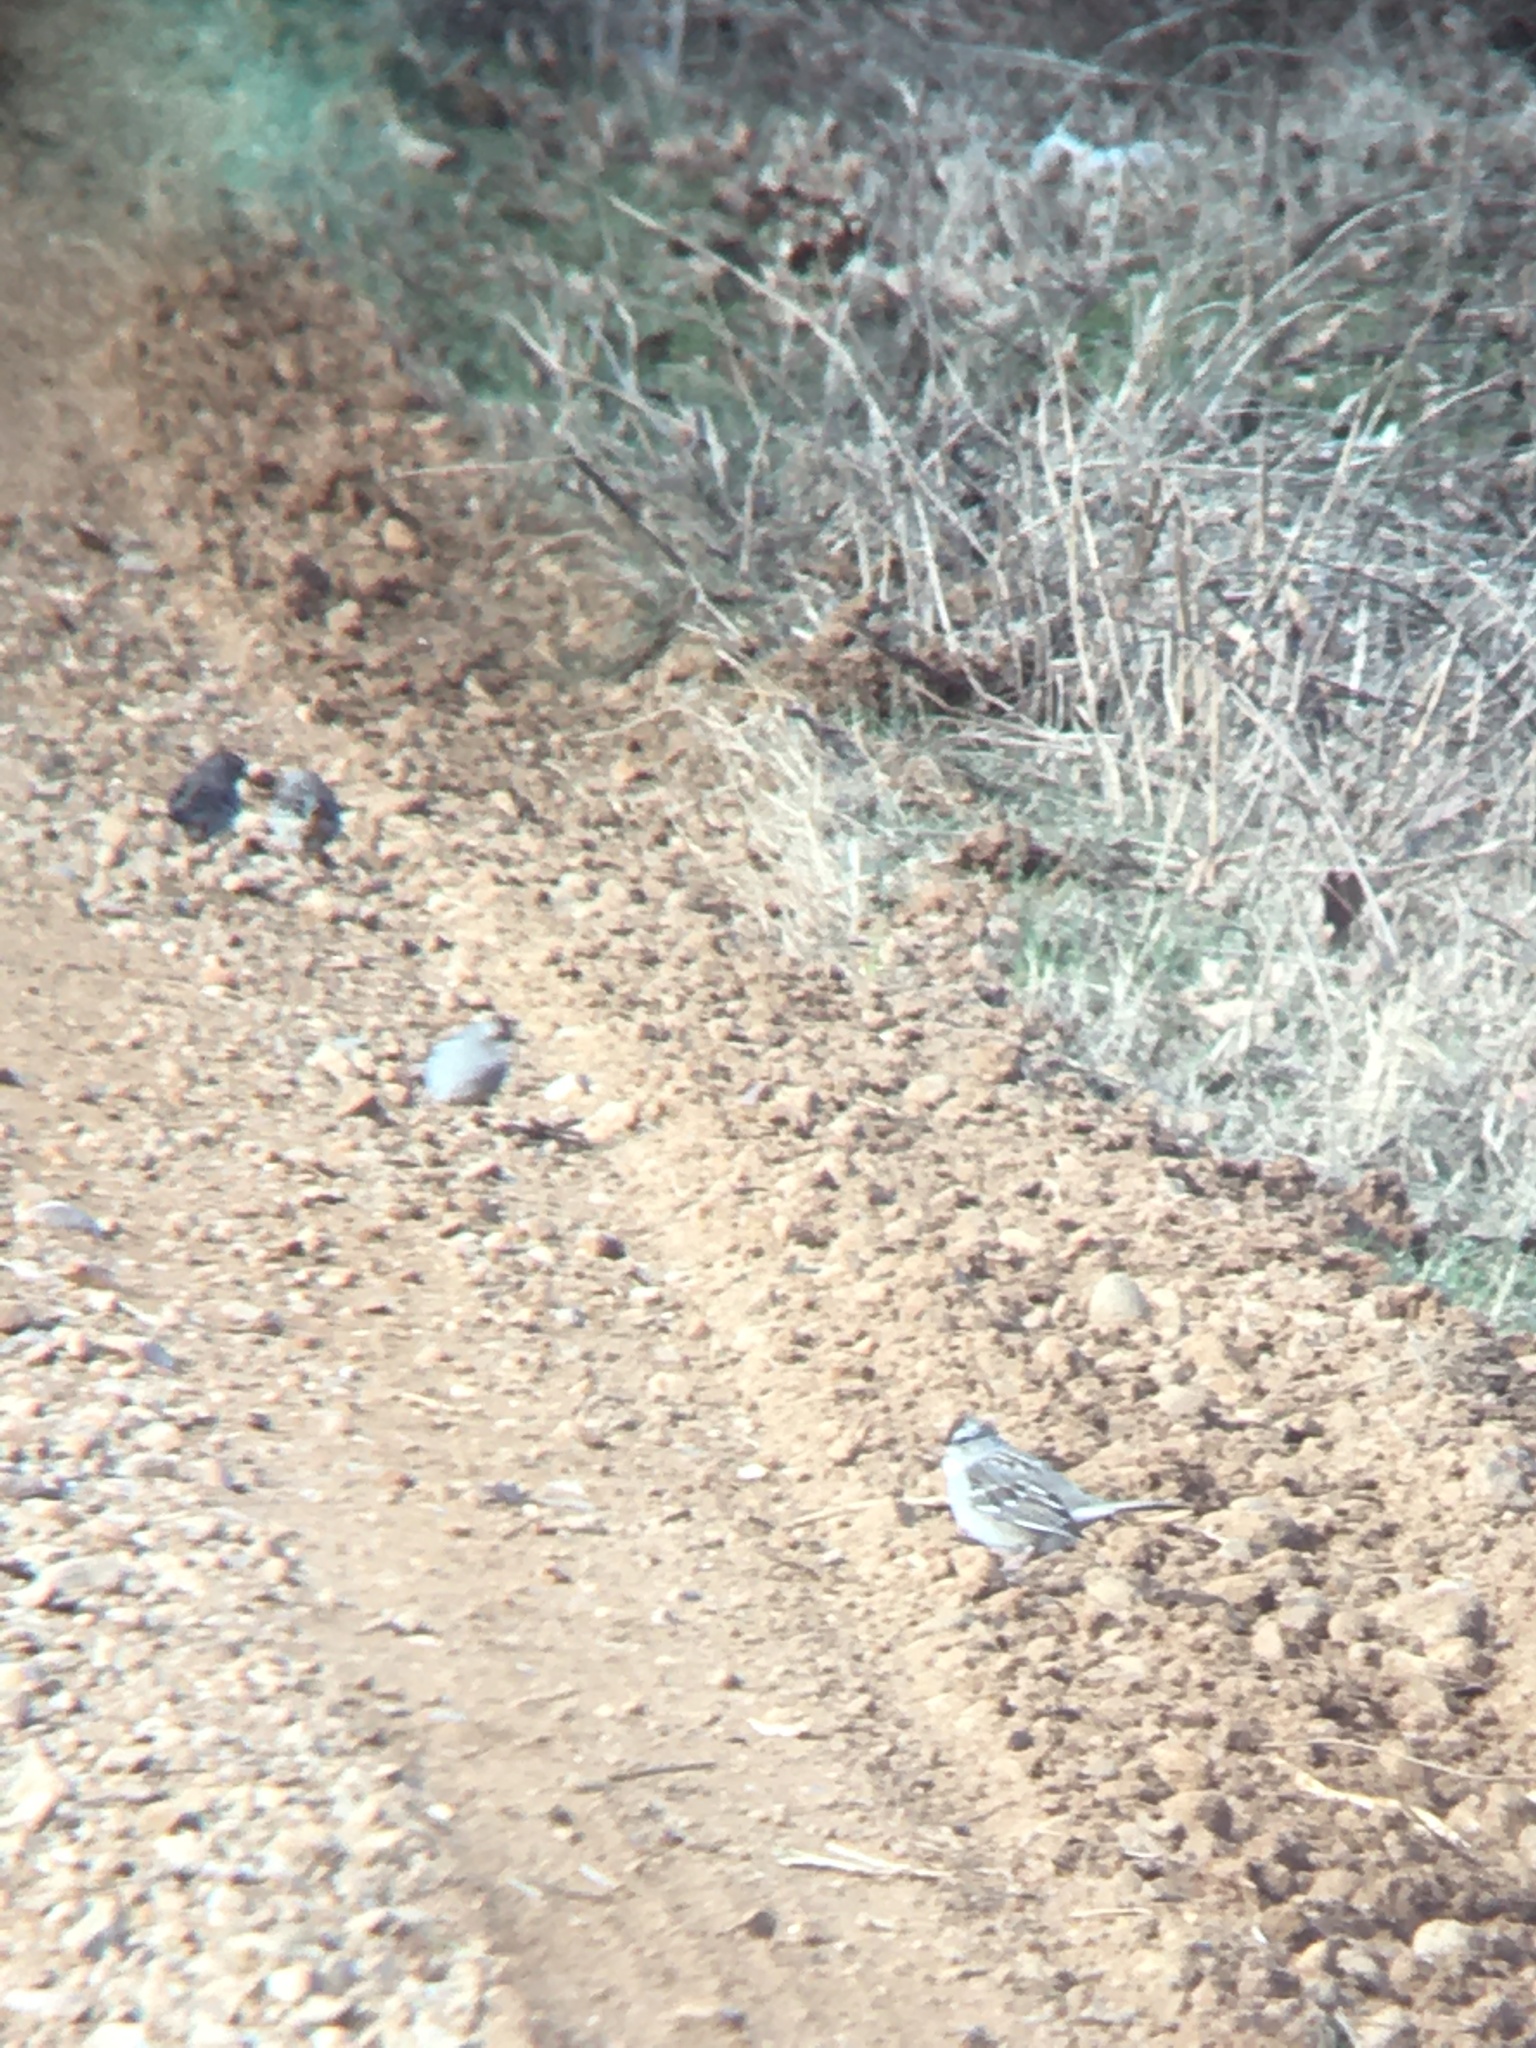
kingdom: Animalia
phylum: Chordata
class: Aves
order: Passeriformes
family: Passerellidae
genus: Zonotrichia
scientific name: Zonotrichia leucophrys
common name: White-crowned sparrow
